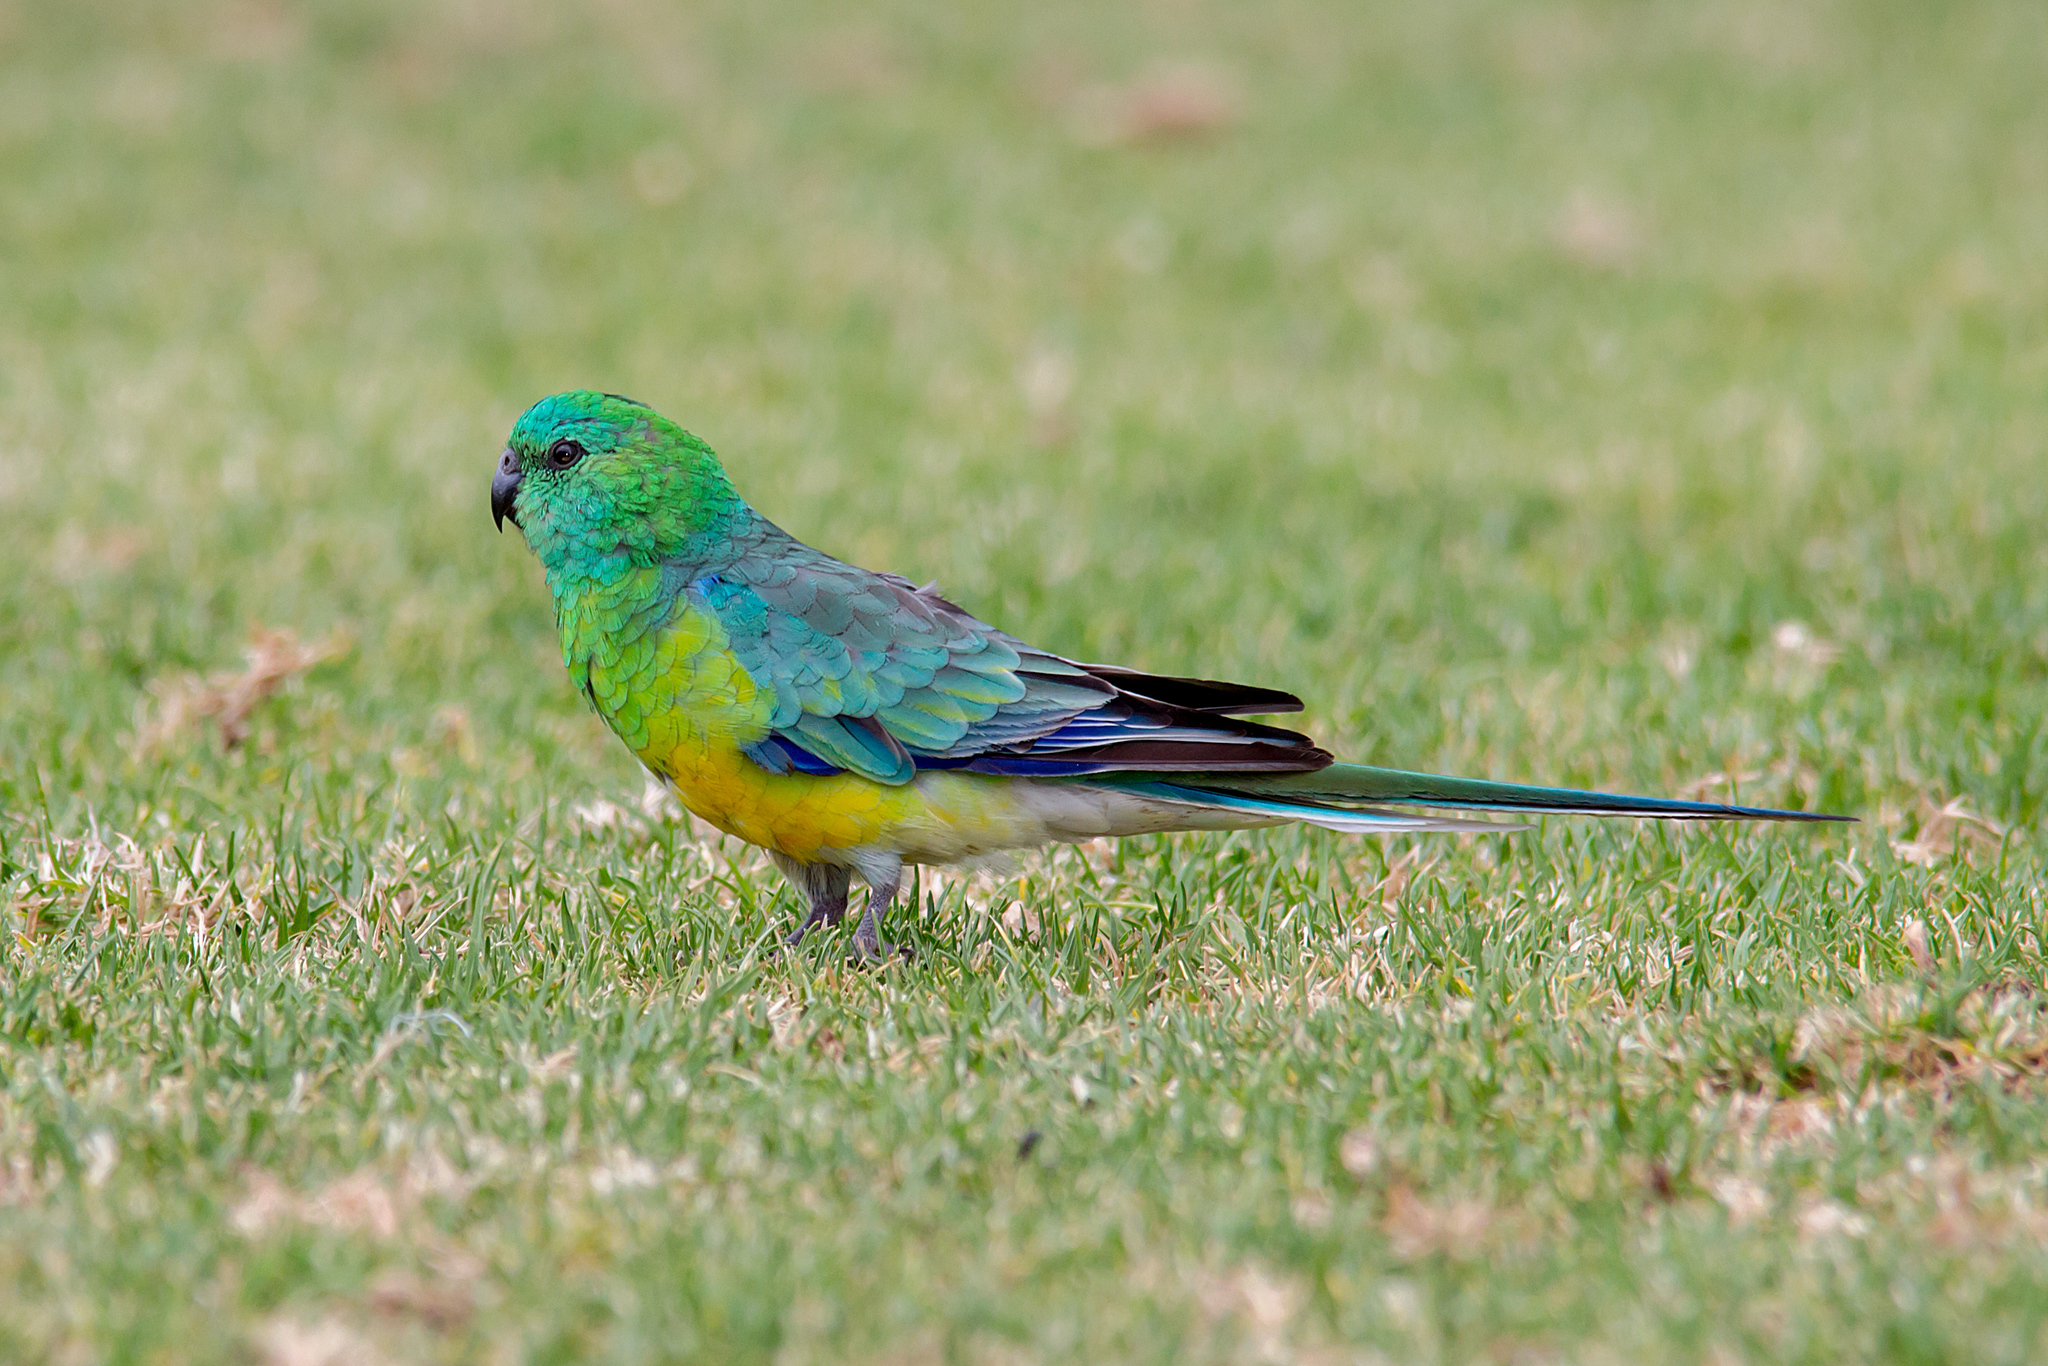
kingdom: Animalia
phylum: Chordata
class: Aves
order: Psittaciformes
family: Psittacidae
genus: Psephotus
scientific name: Psephotus haematonotus
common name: Red-rumped parrot
